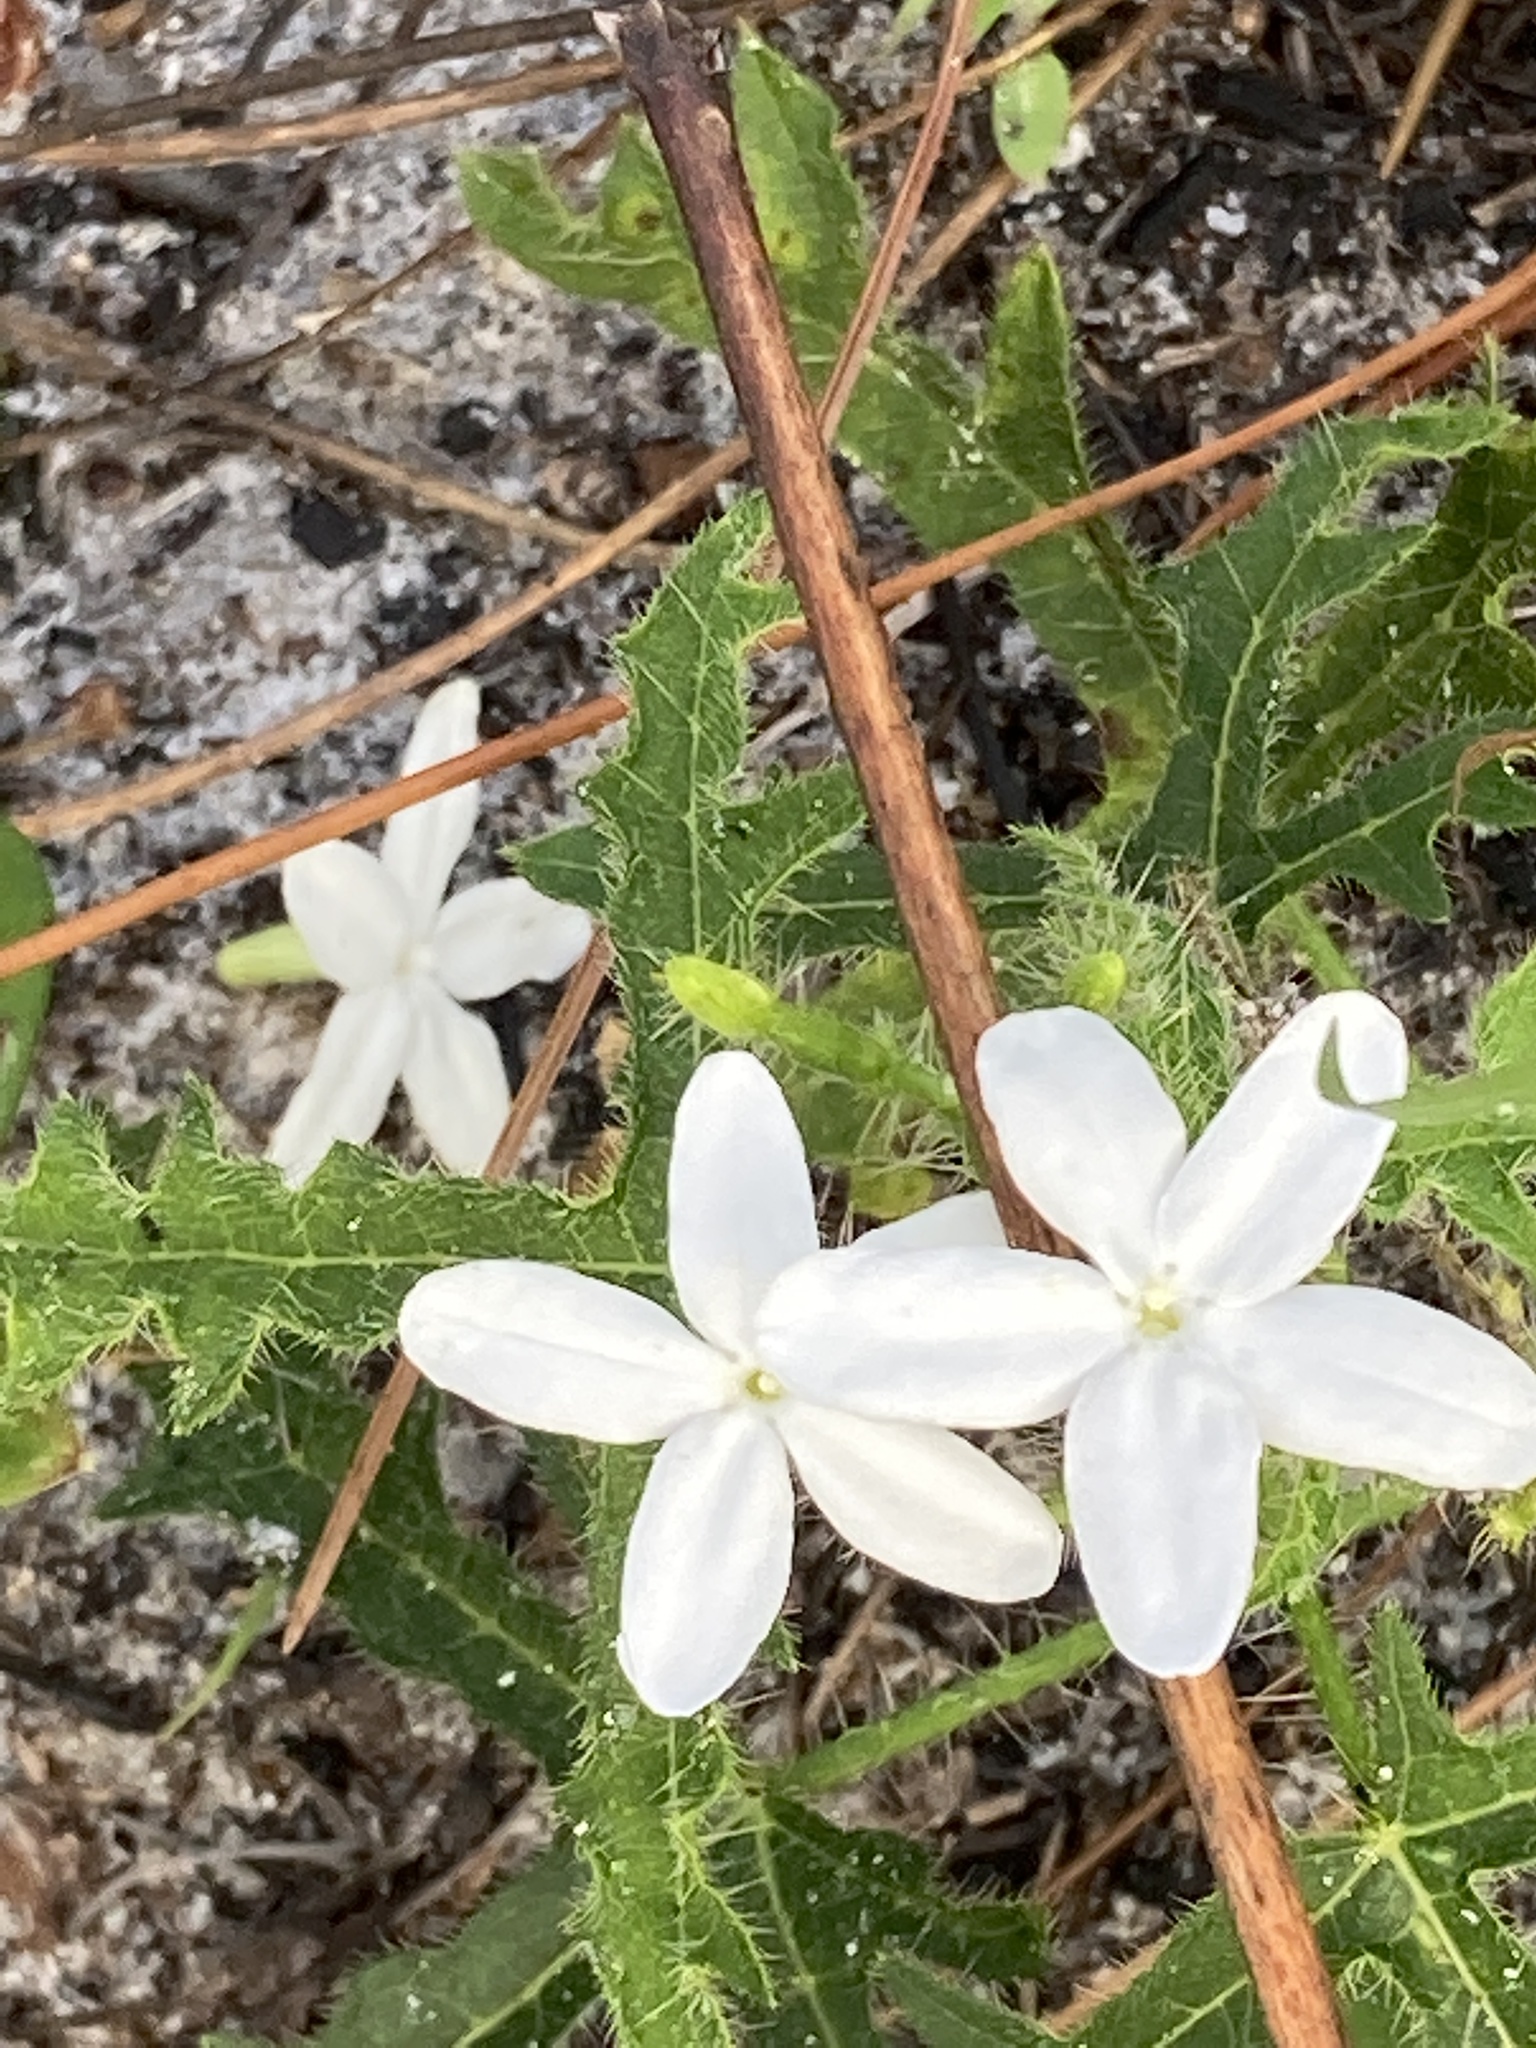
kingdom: Plantae
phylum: Tracheophyta
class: Magnoliopsida
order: Malpighiales
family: Euphorbiaceae
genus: Cnidoscolus
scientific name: Cnidoscolus stimulosus
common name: Bull-nettle
